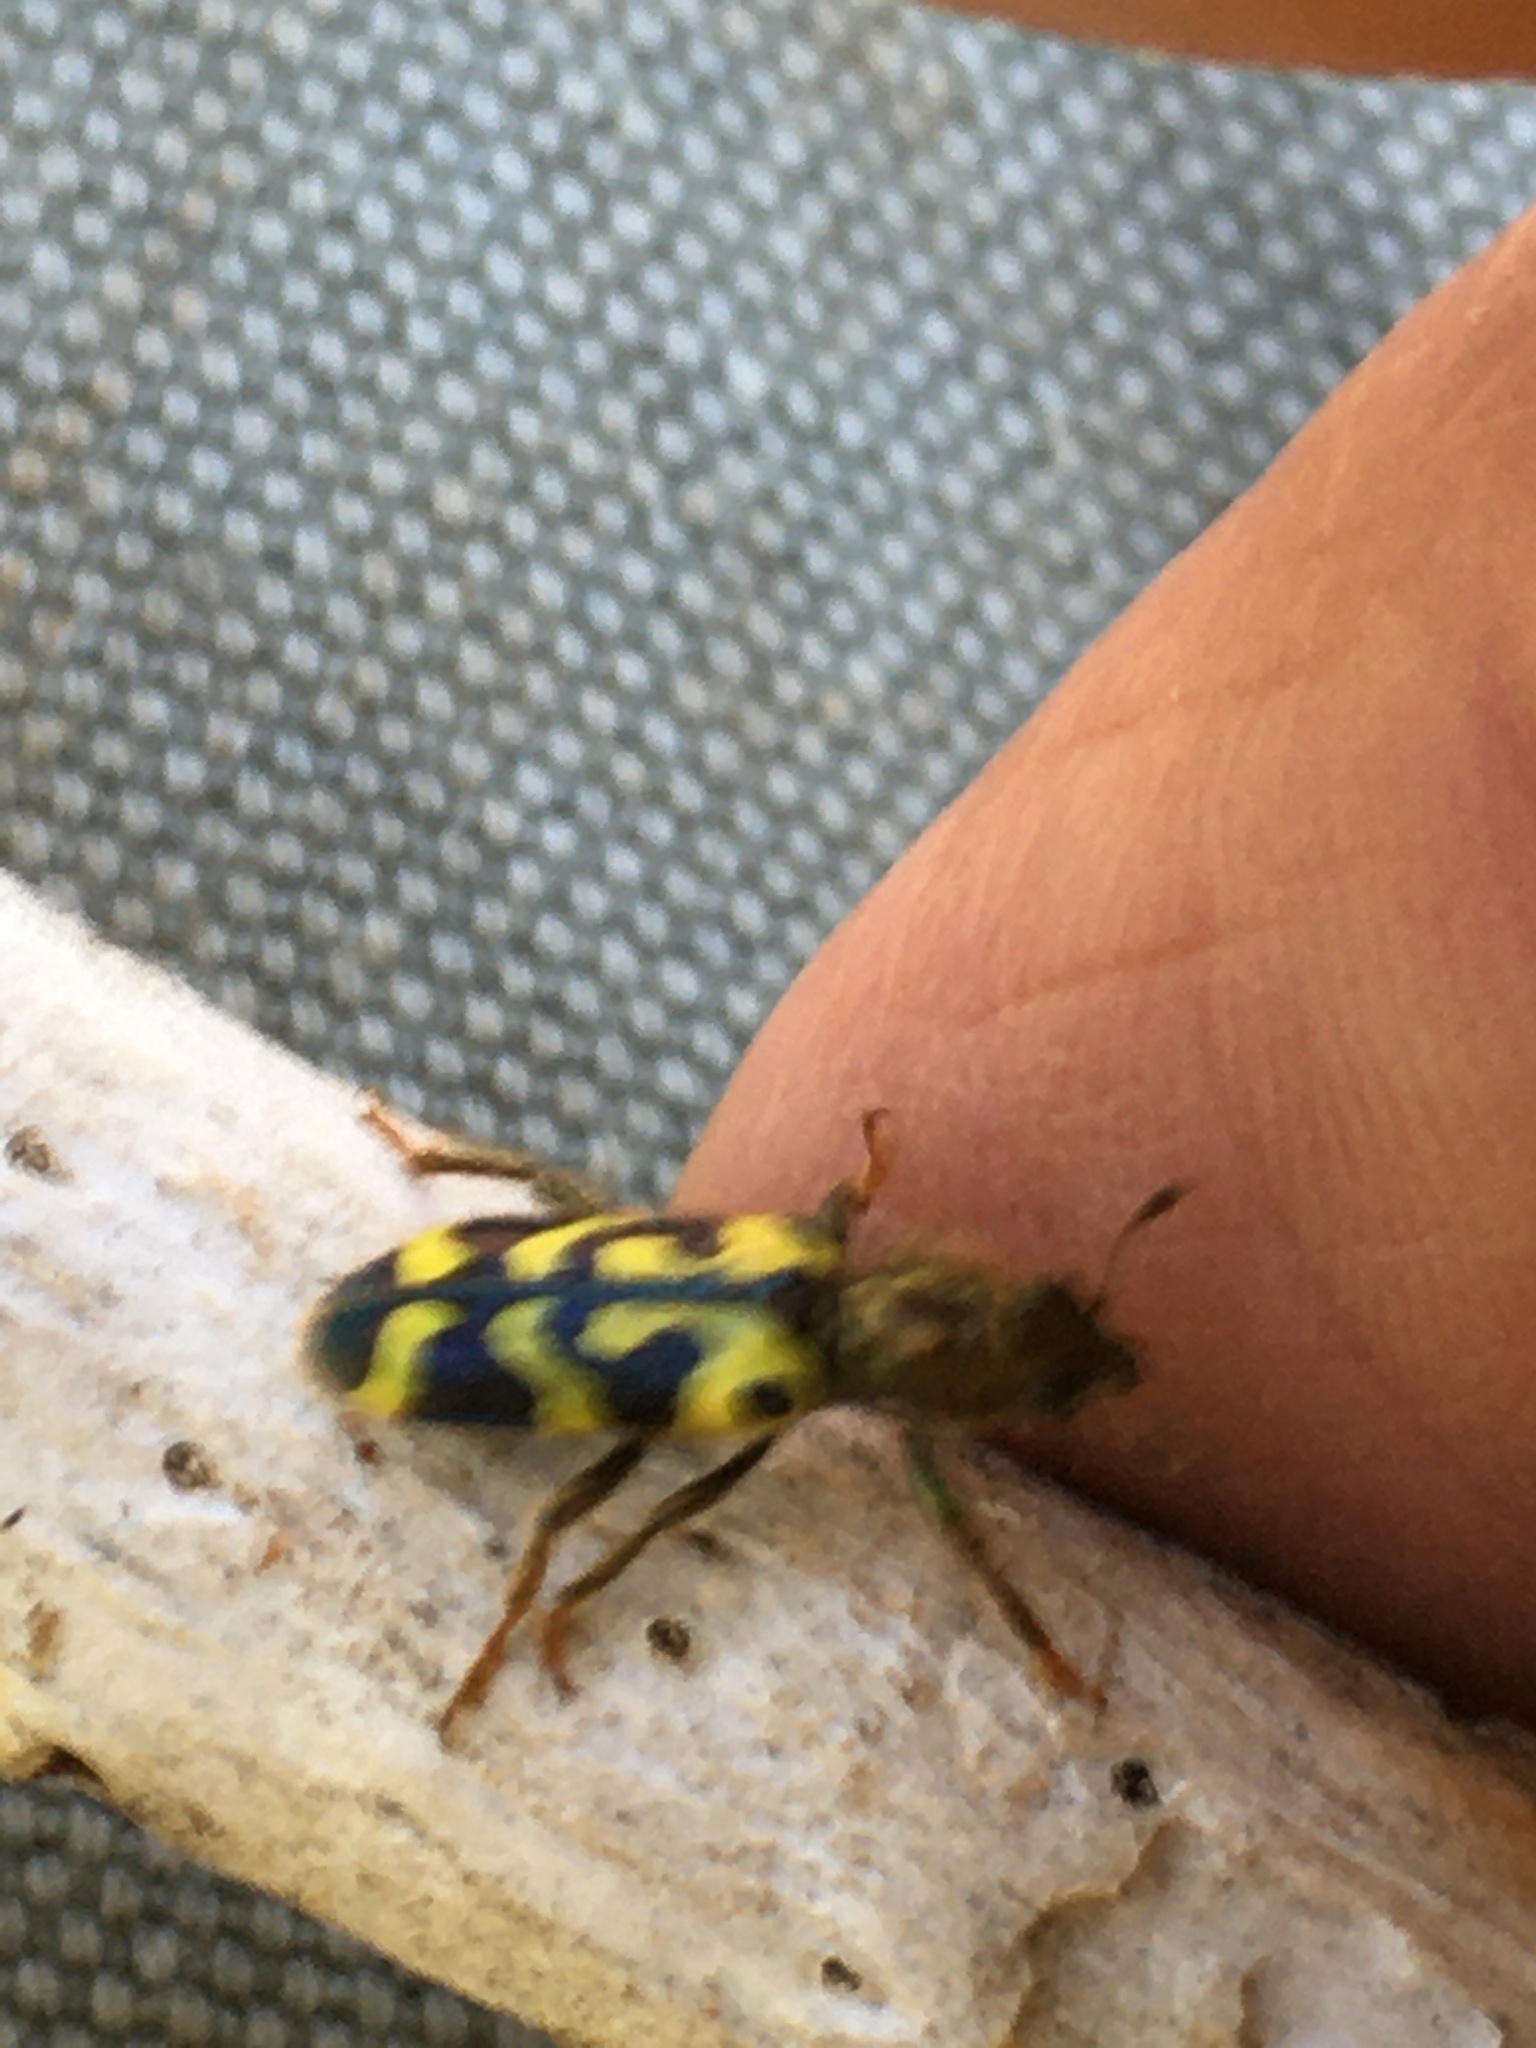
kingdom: Animalia
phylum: Arthropoda
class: Insecta
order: Coleoptera
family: Cleridae
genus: Trichodes
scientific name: Trichodes ornatus
